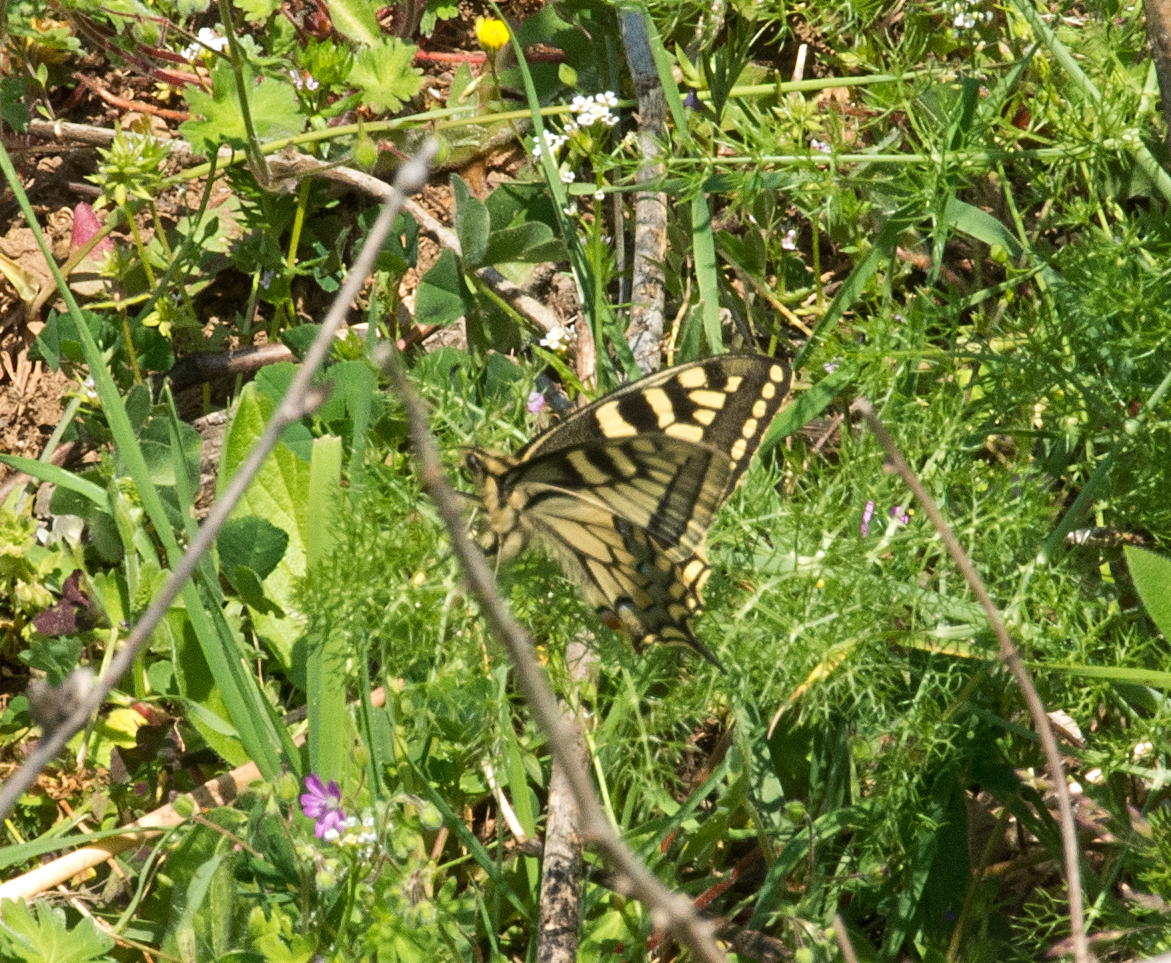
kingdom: Animalia
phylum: Arthropoda
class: Insecta
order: Lepidoptera
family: Papilionidae
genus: Papilio
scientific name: Papilio machaon
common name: Swallowtail
